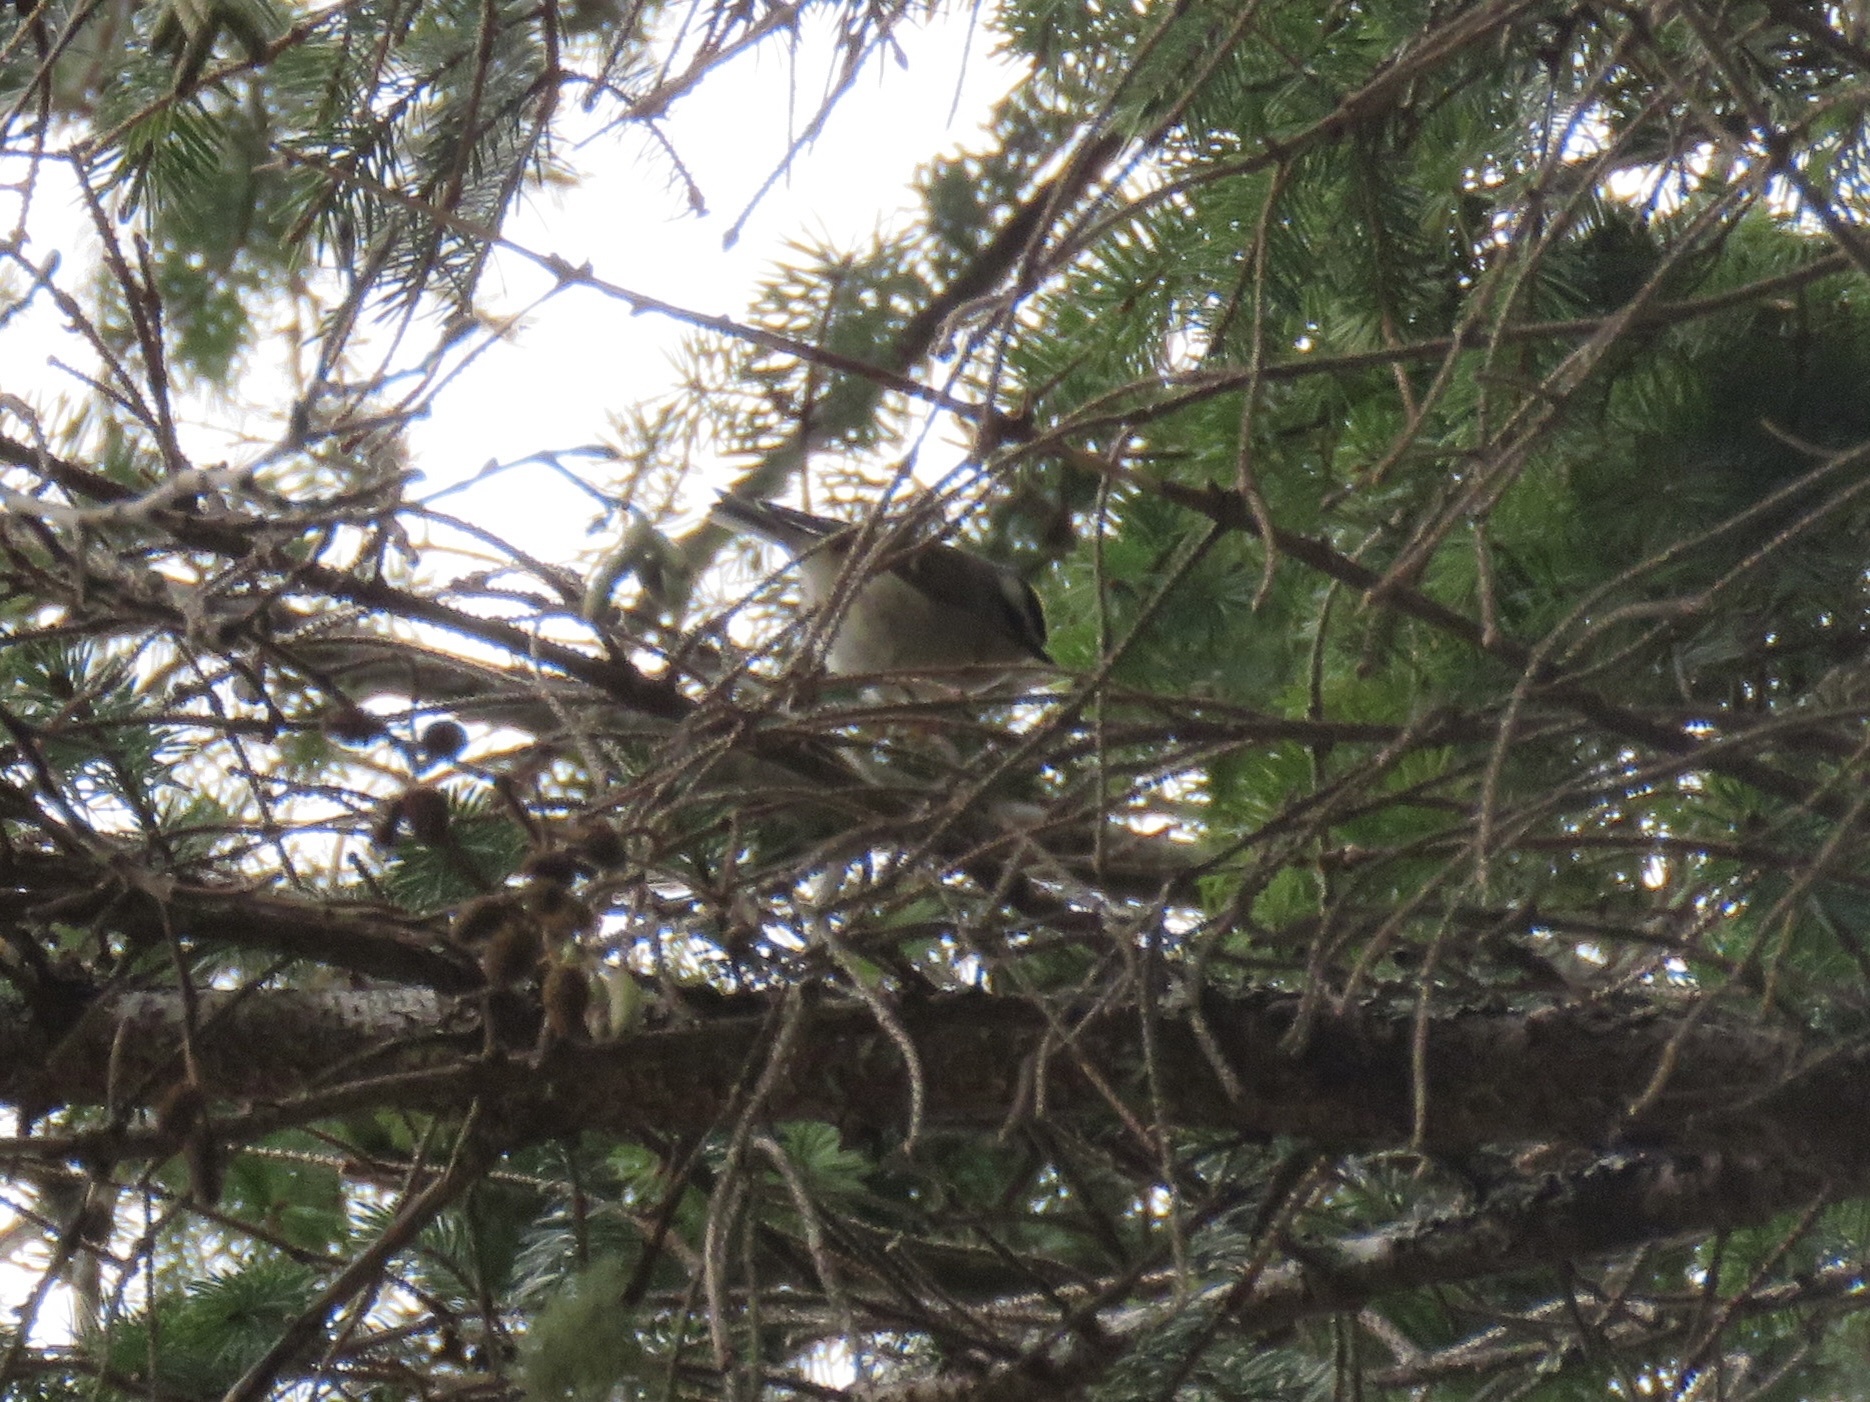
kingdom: Animalia
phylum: Chordata
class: Aves
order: Passeriformes
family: Regulidae
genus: Regulus
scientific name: Regulus satrapa
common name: Golden-crowned kinglet
